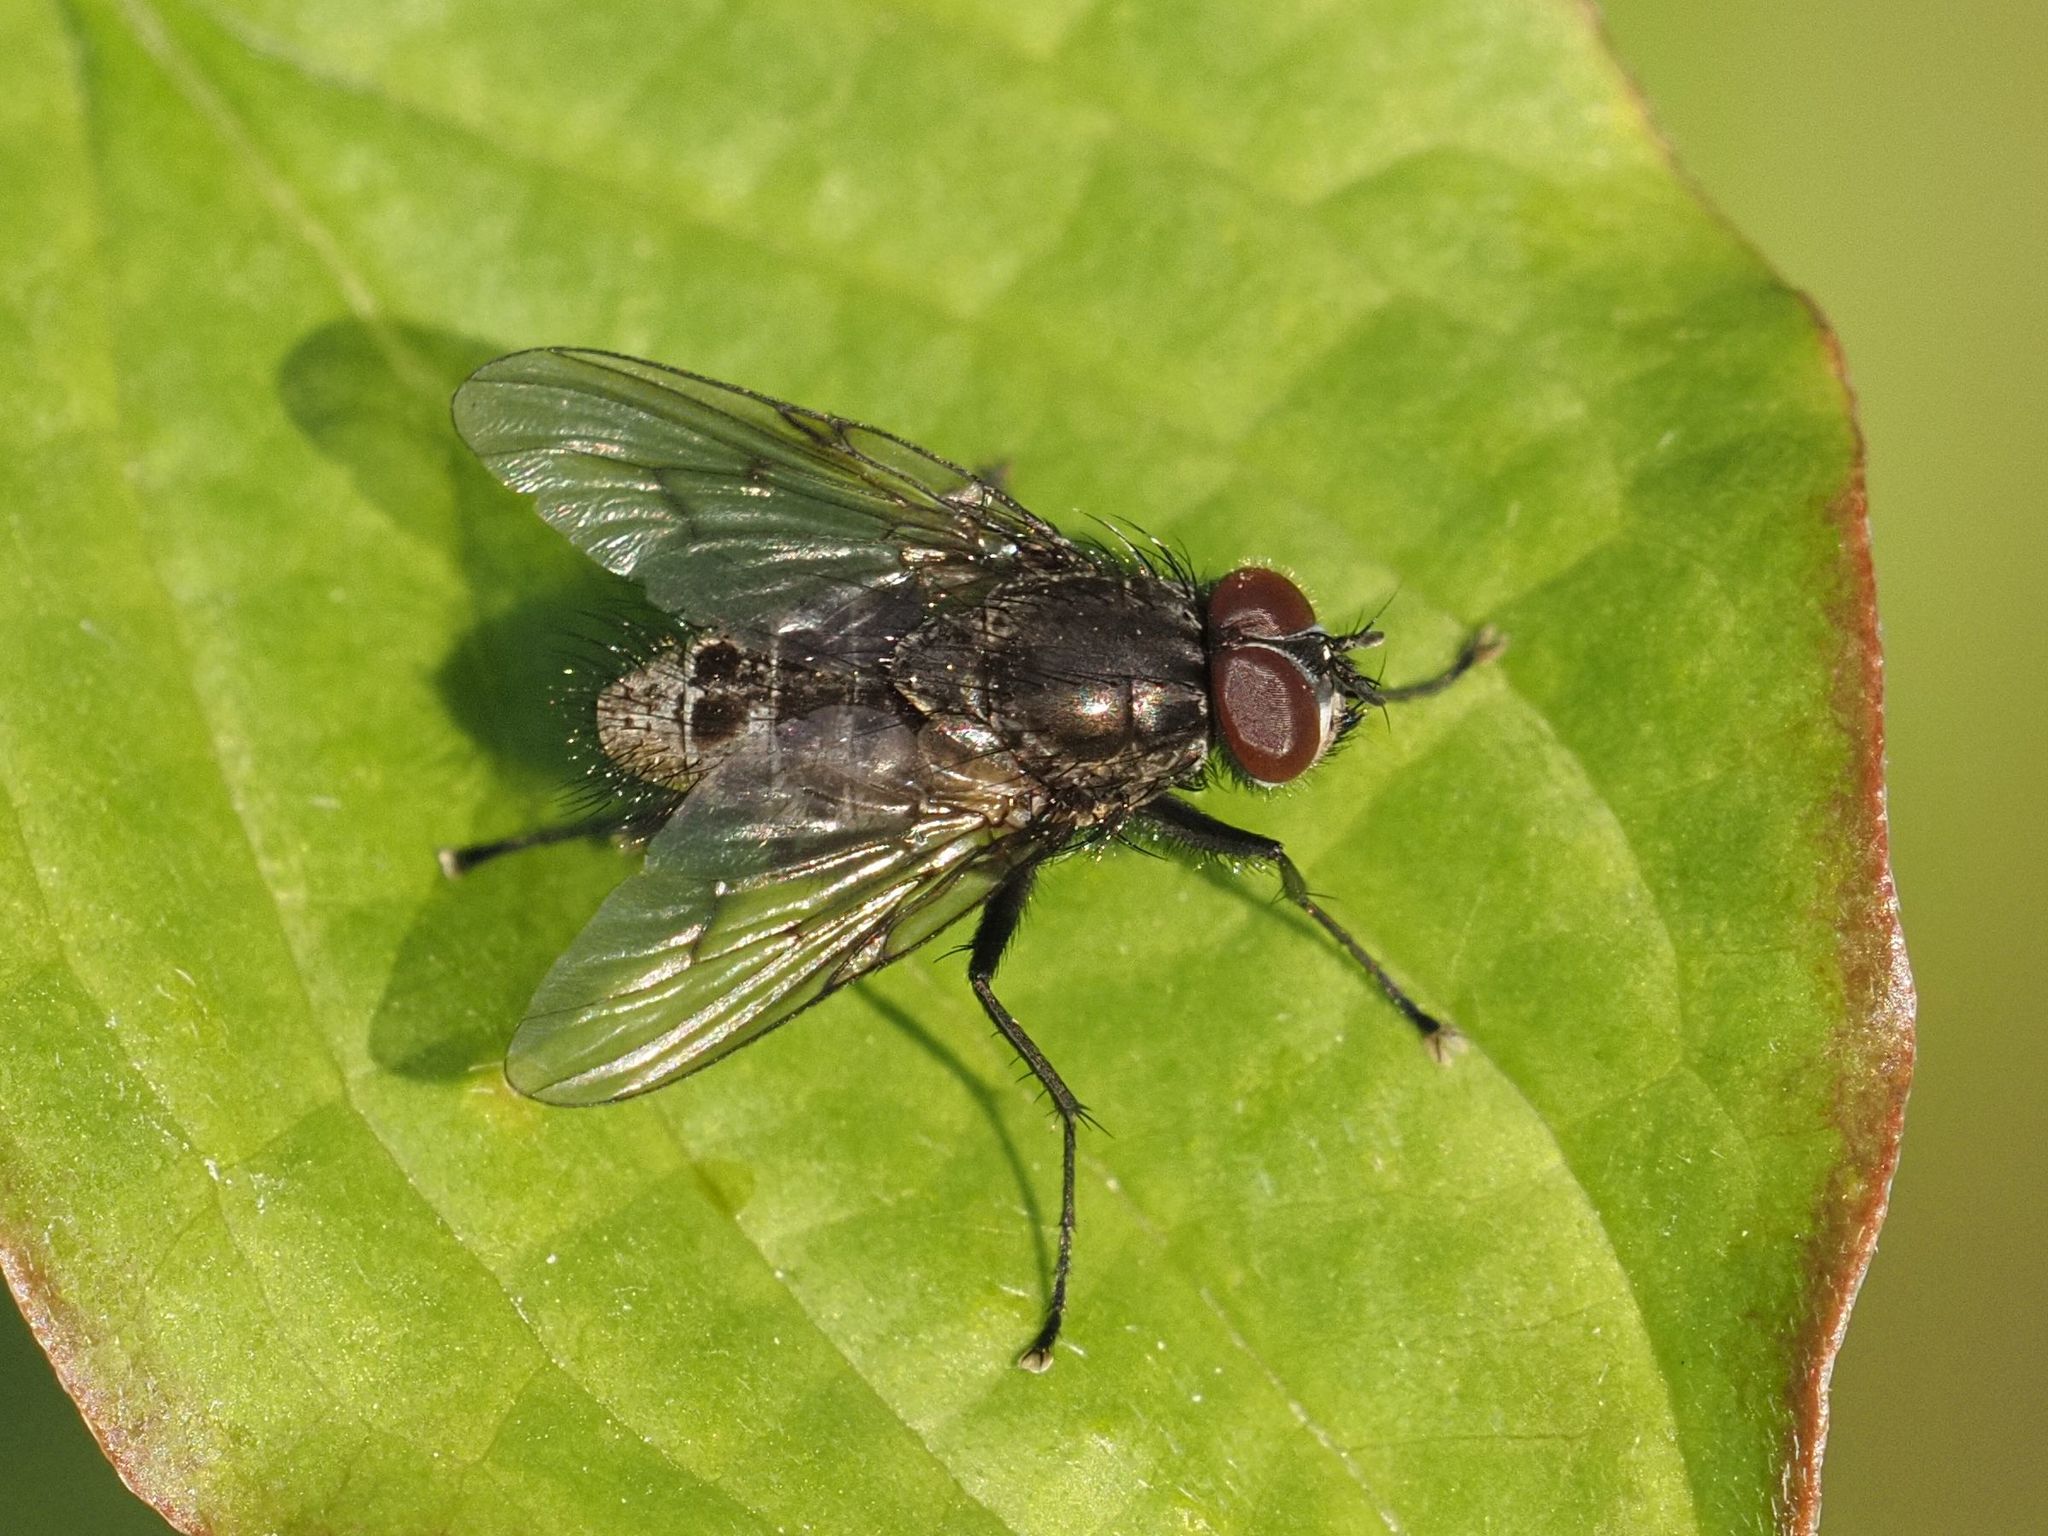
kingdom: Animalia
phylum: Arthropoda
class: Insecta
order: Diptera
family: Muscidae
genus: Helina
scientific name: Helina evecta
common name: Muscid fly
